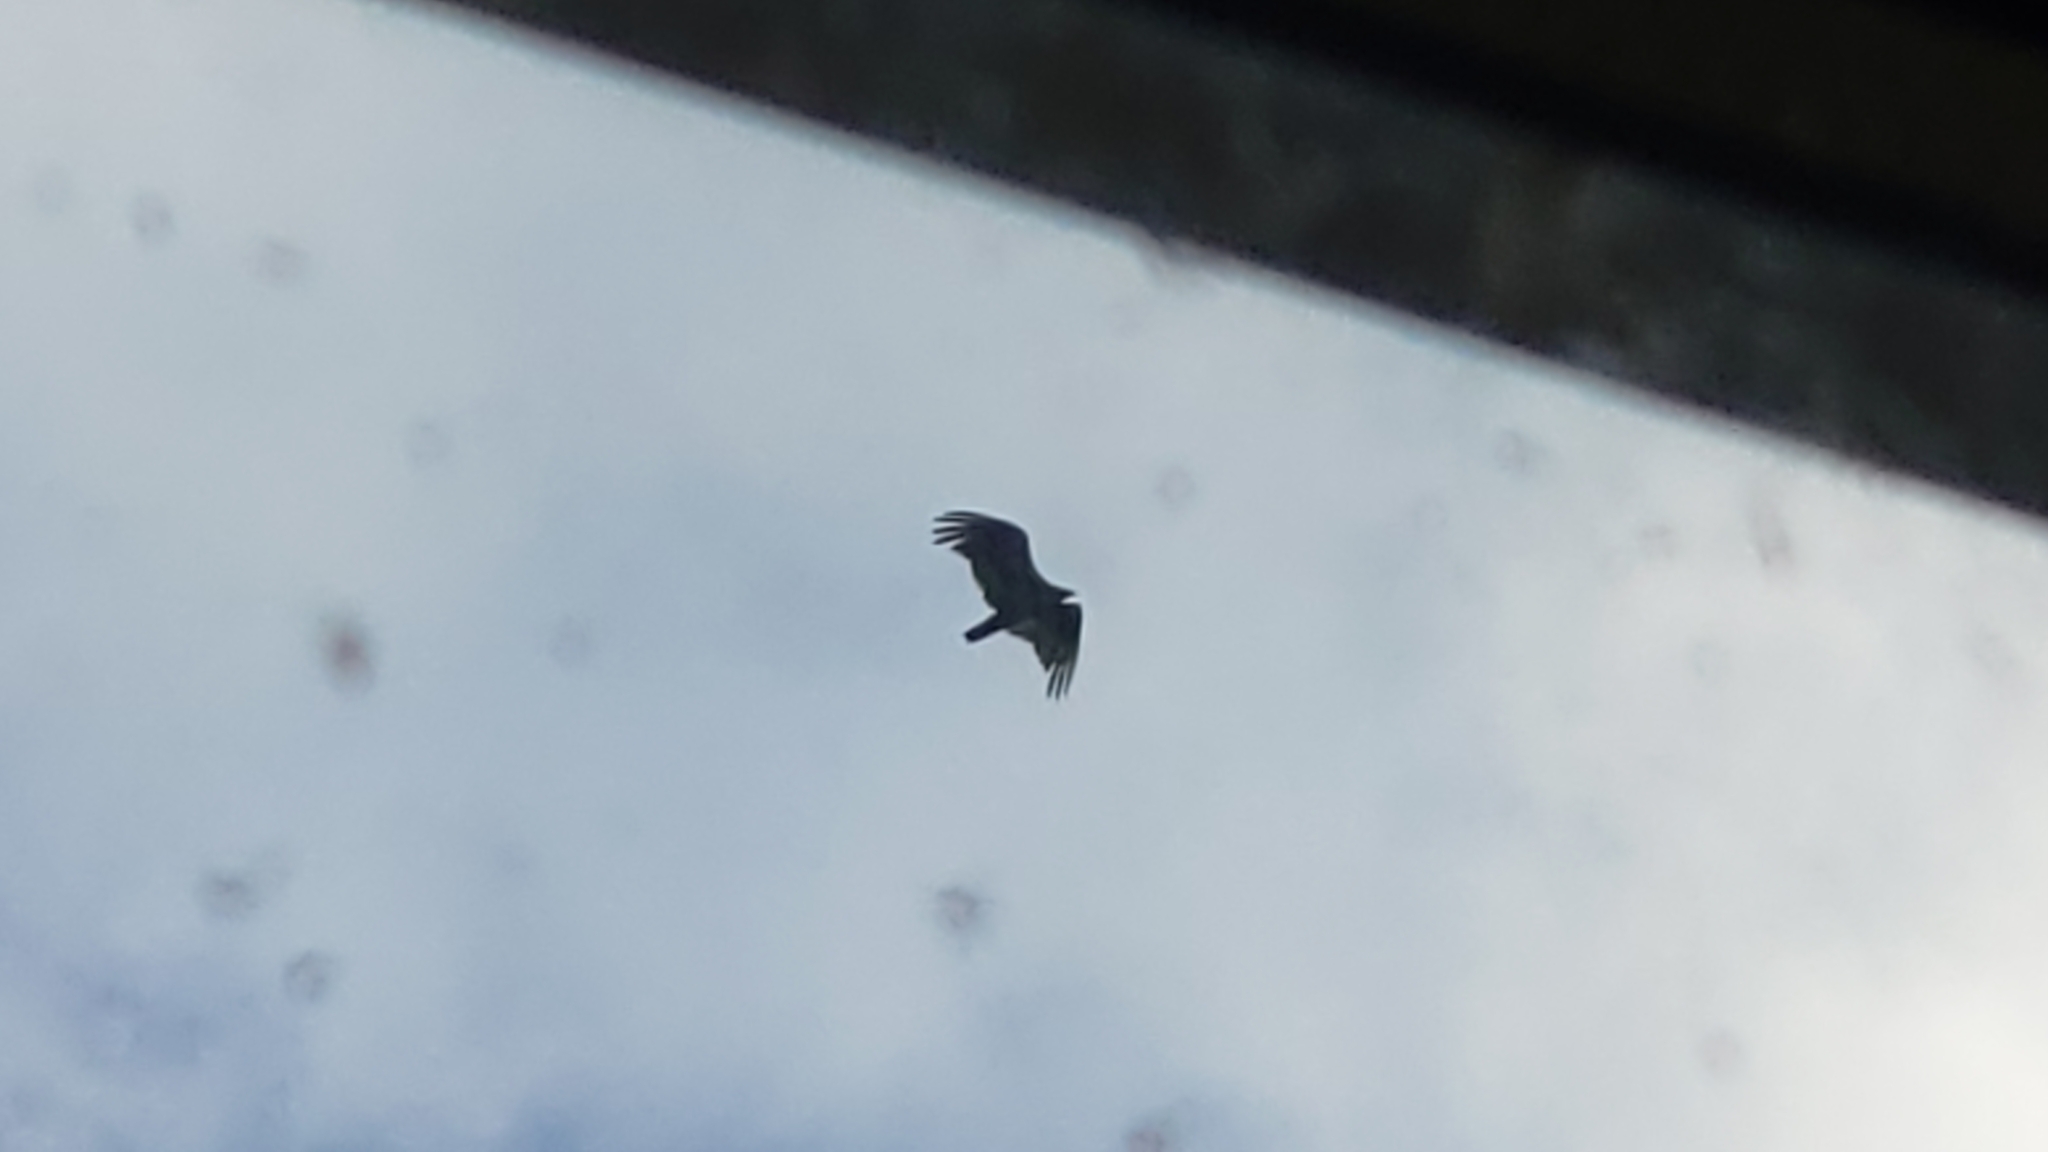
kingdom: Animalia
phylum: Chordata
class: Aves
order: Accipitriformes
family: Cathartidae
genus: Cathartes
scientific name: Cathartes aura
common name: Turkey vulture
